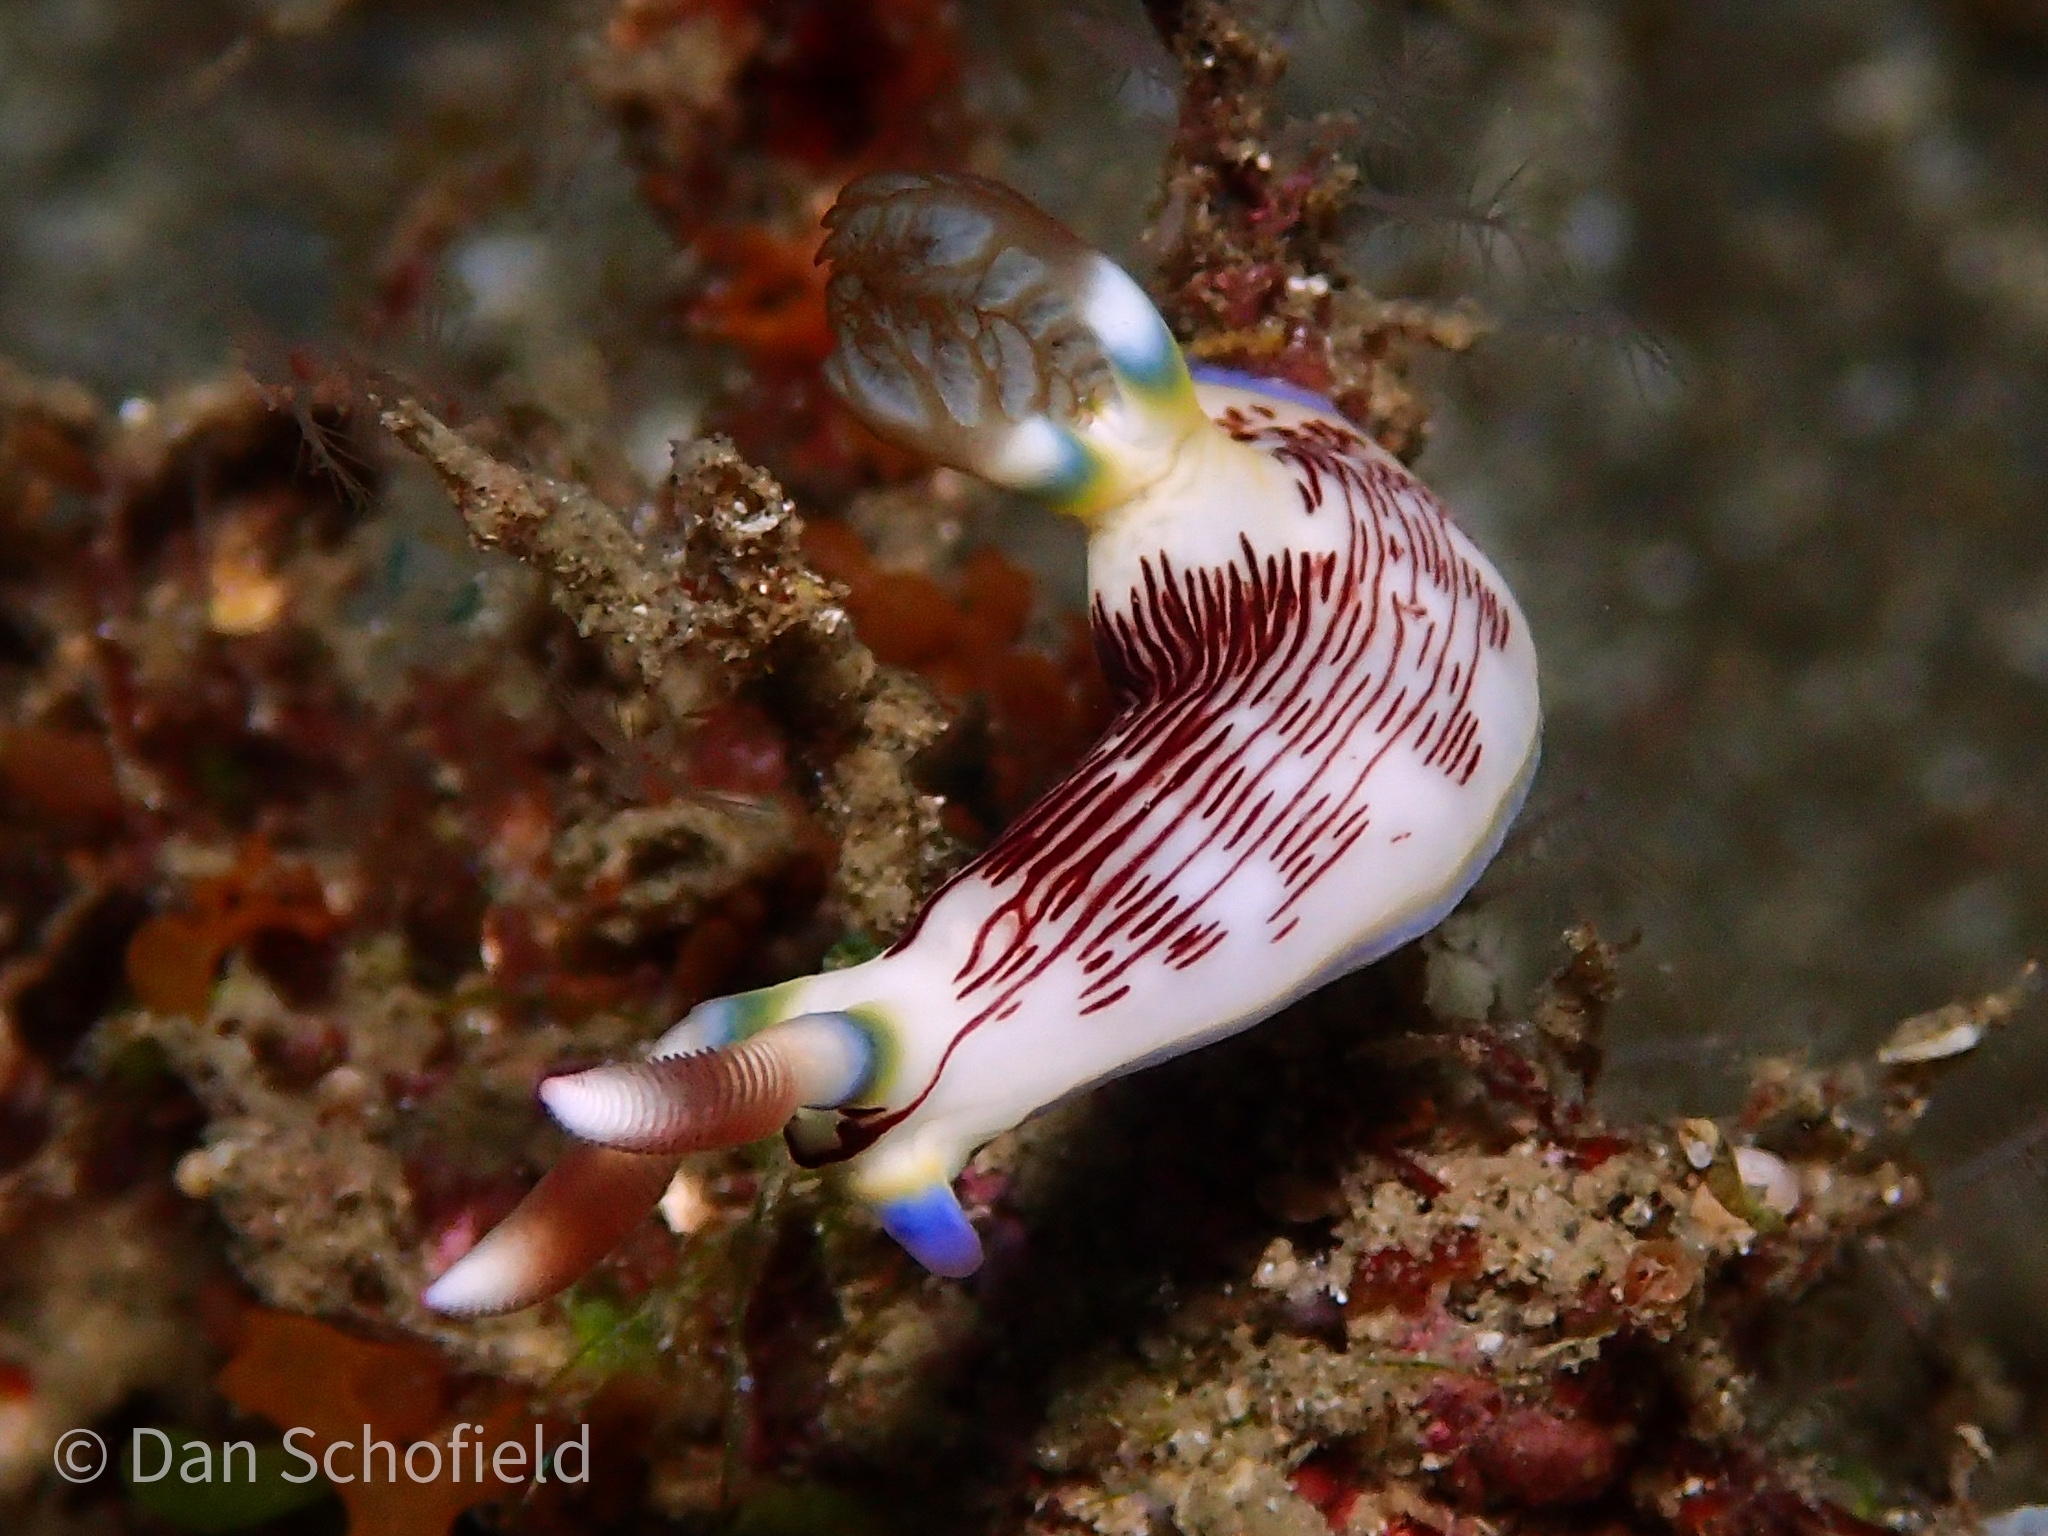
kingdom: Animalia
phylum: Mollusca
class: Gastropoda
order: Nudibranchia
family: Polyceridae
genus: Nembrotha
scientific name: Nembrotha lineolata
